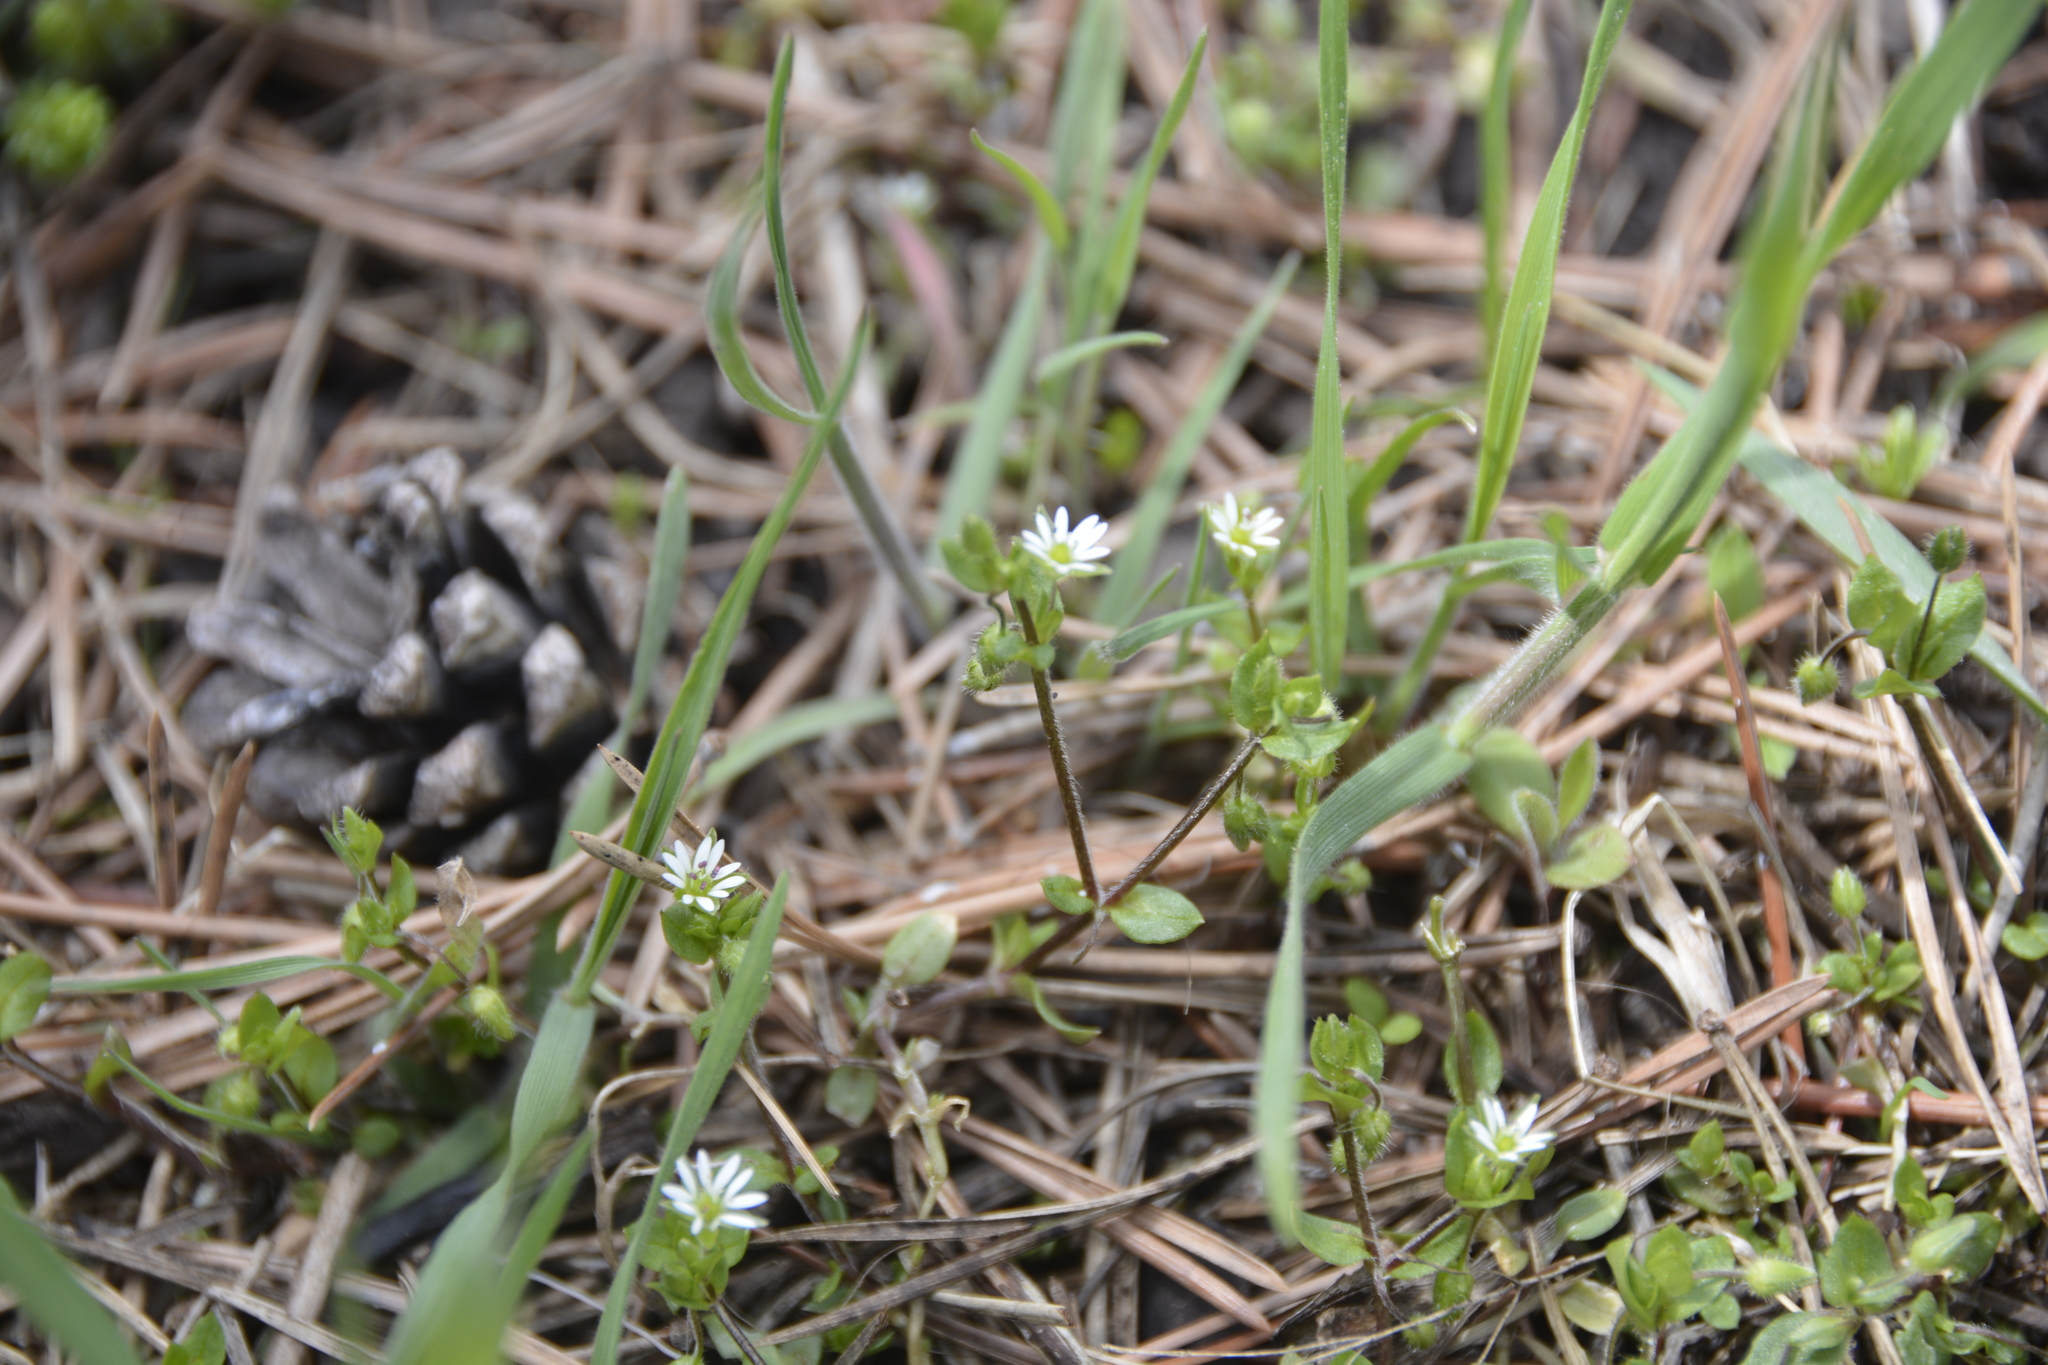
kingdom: Plantae
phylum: Tracheophyta
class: Magnoliopsida
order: Caryophyllales
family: Caryophyllaceae
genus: Stellaria
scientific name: Stellaria media
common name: Common chickweed
